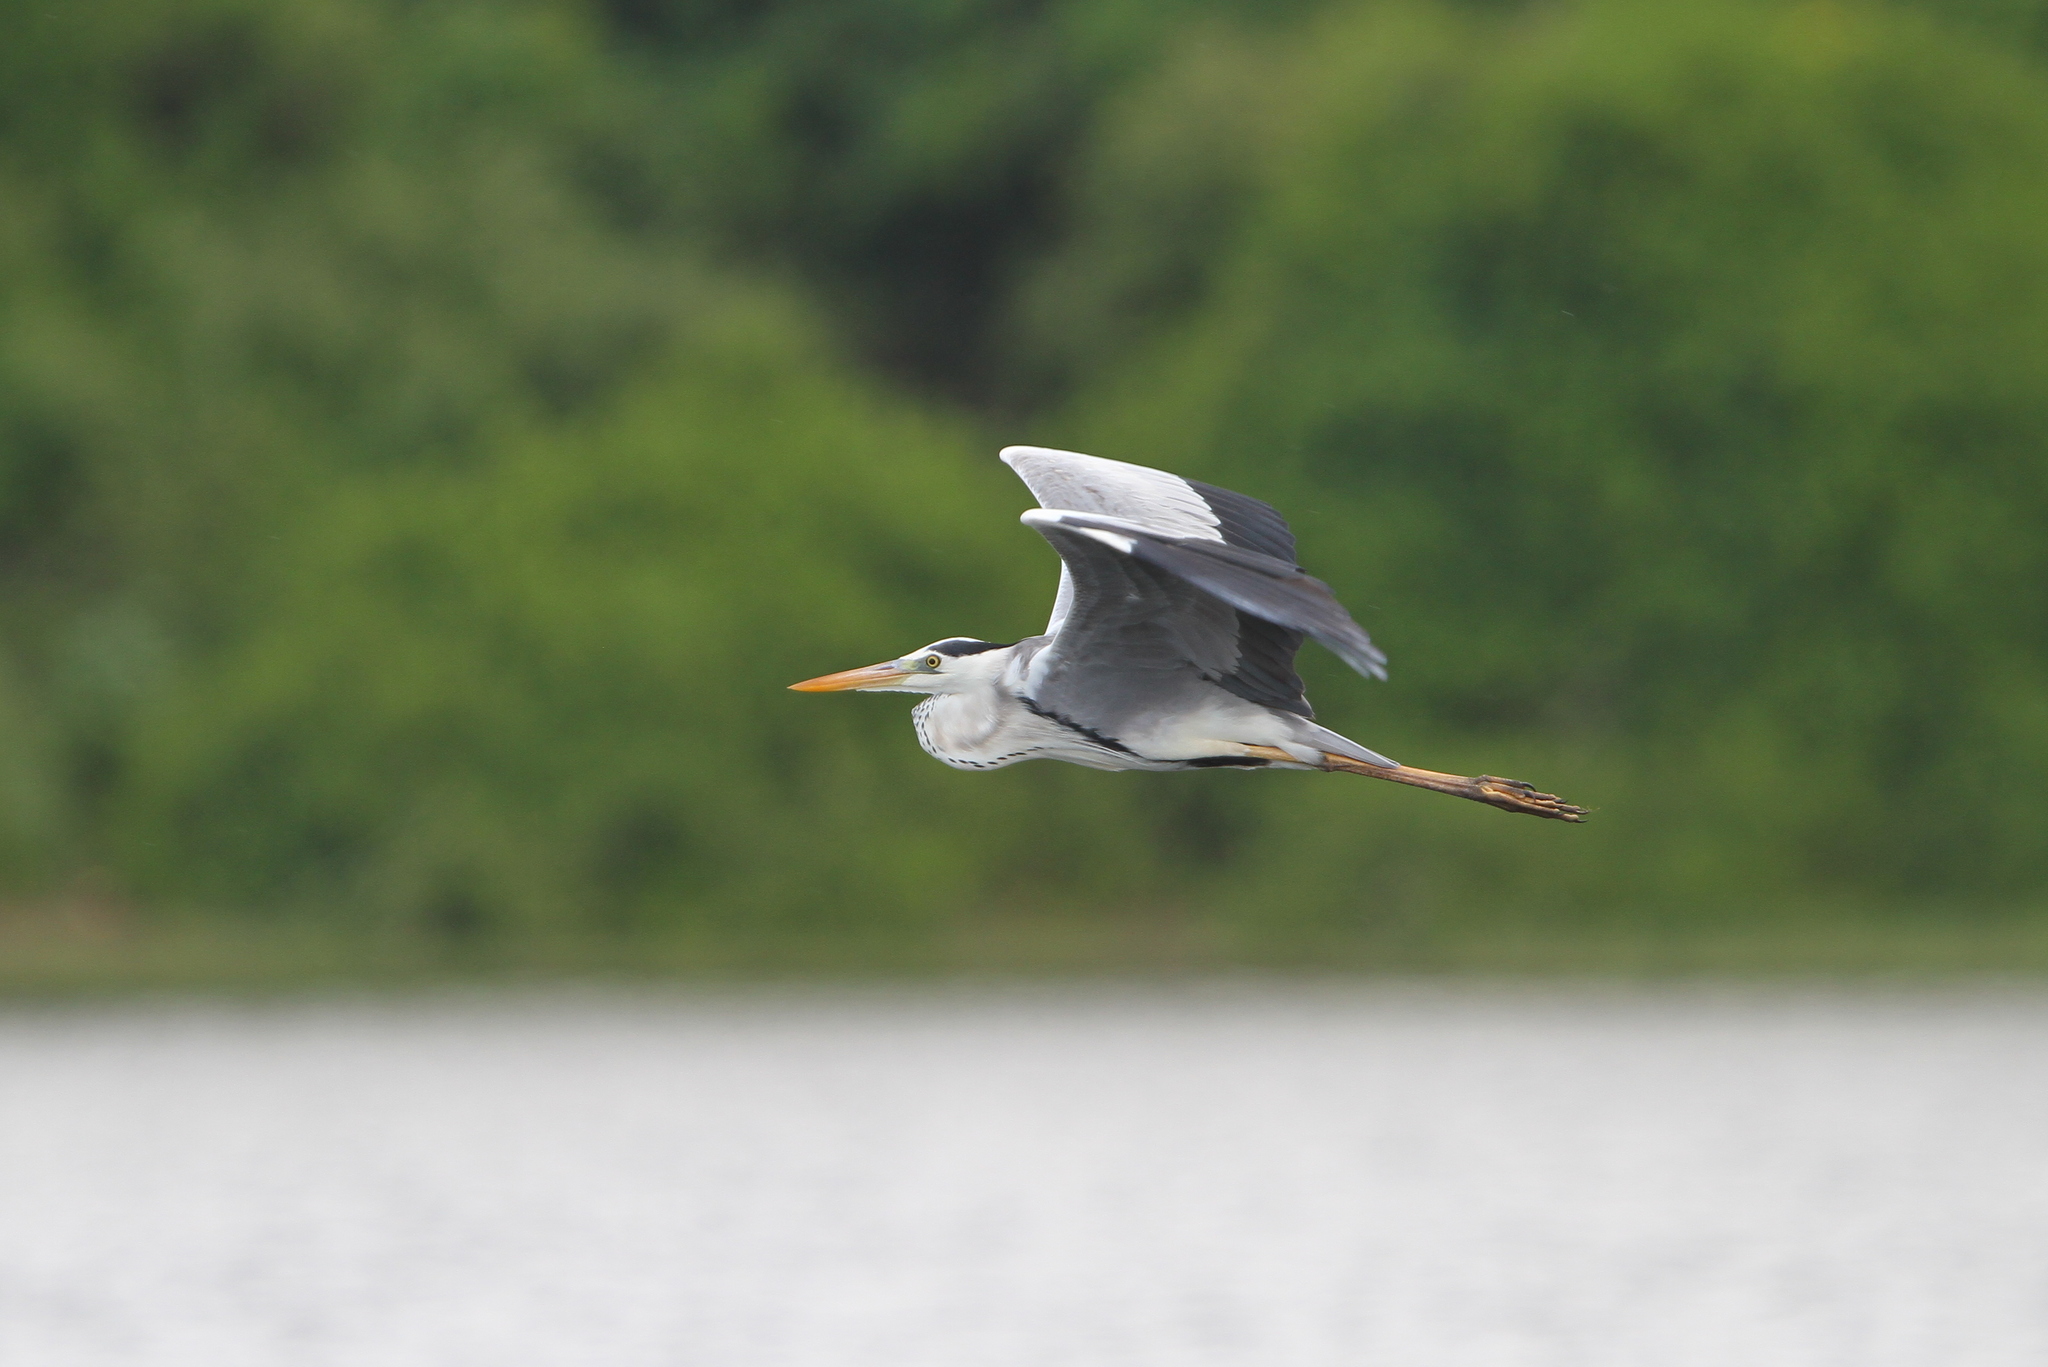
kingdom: Animalia
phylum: Chordata
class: Aves
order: Pelecaniformes
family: Ardeidae
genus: Ardea
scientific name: Ardea cinerea
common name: Grey heron
